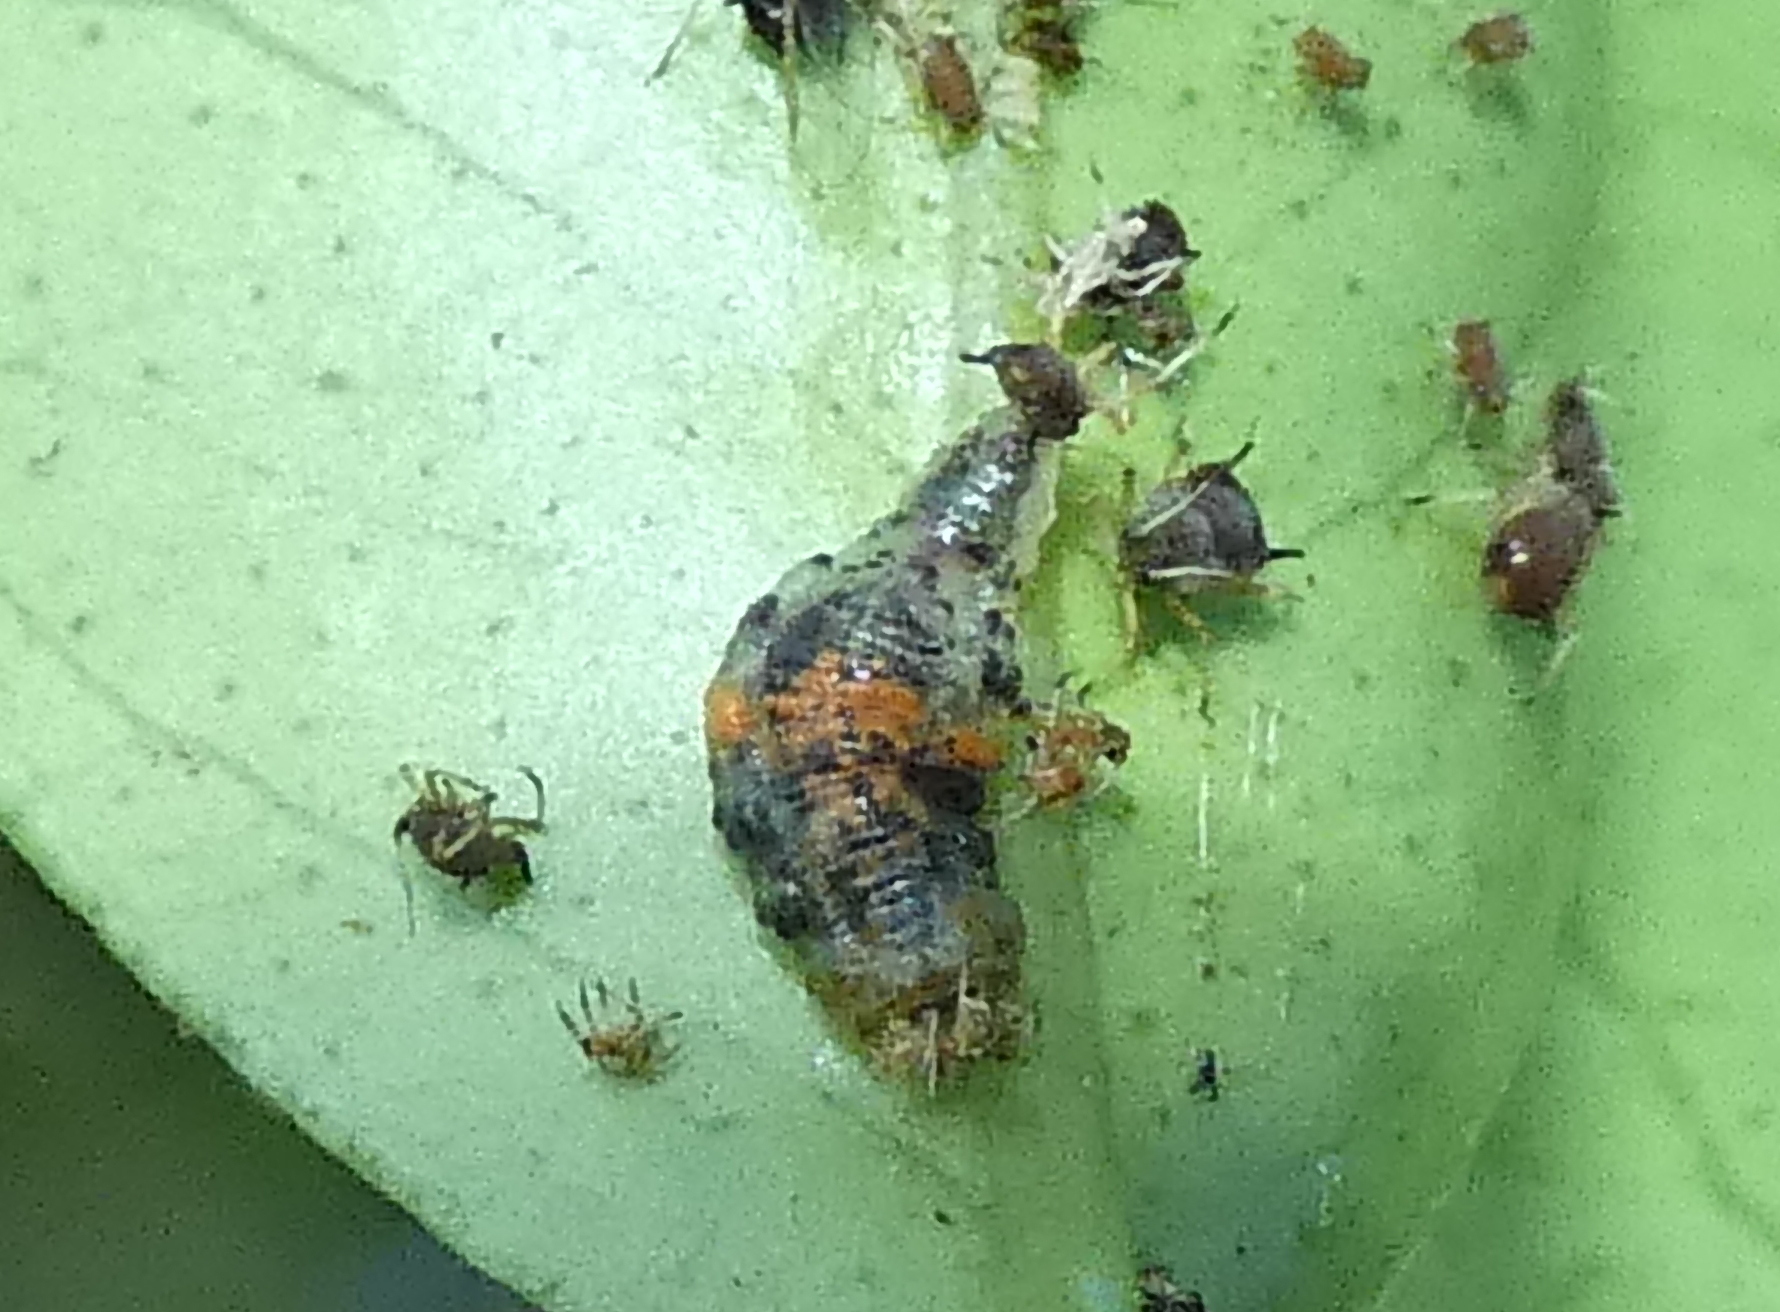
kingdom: Animalia
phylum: Arthropoda
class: Insecta
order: Diptera
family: Syrphidae
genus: Ocyptamus
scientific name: Ocyptamus gastrostactus
